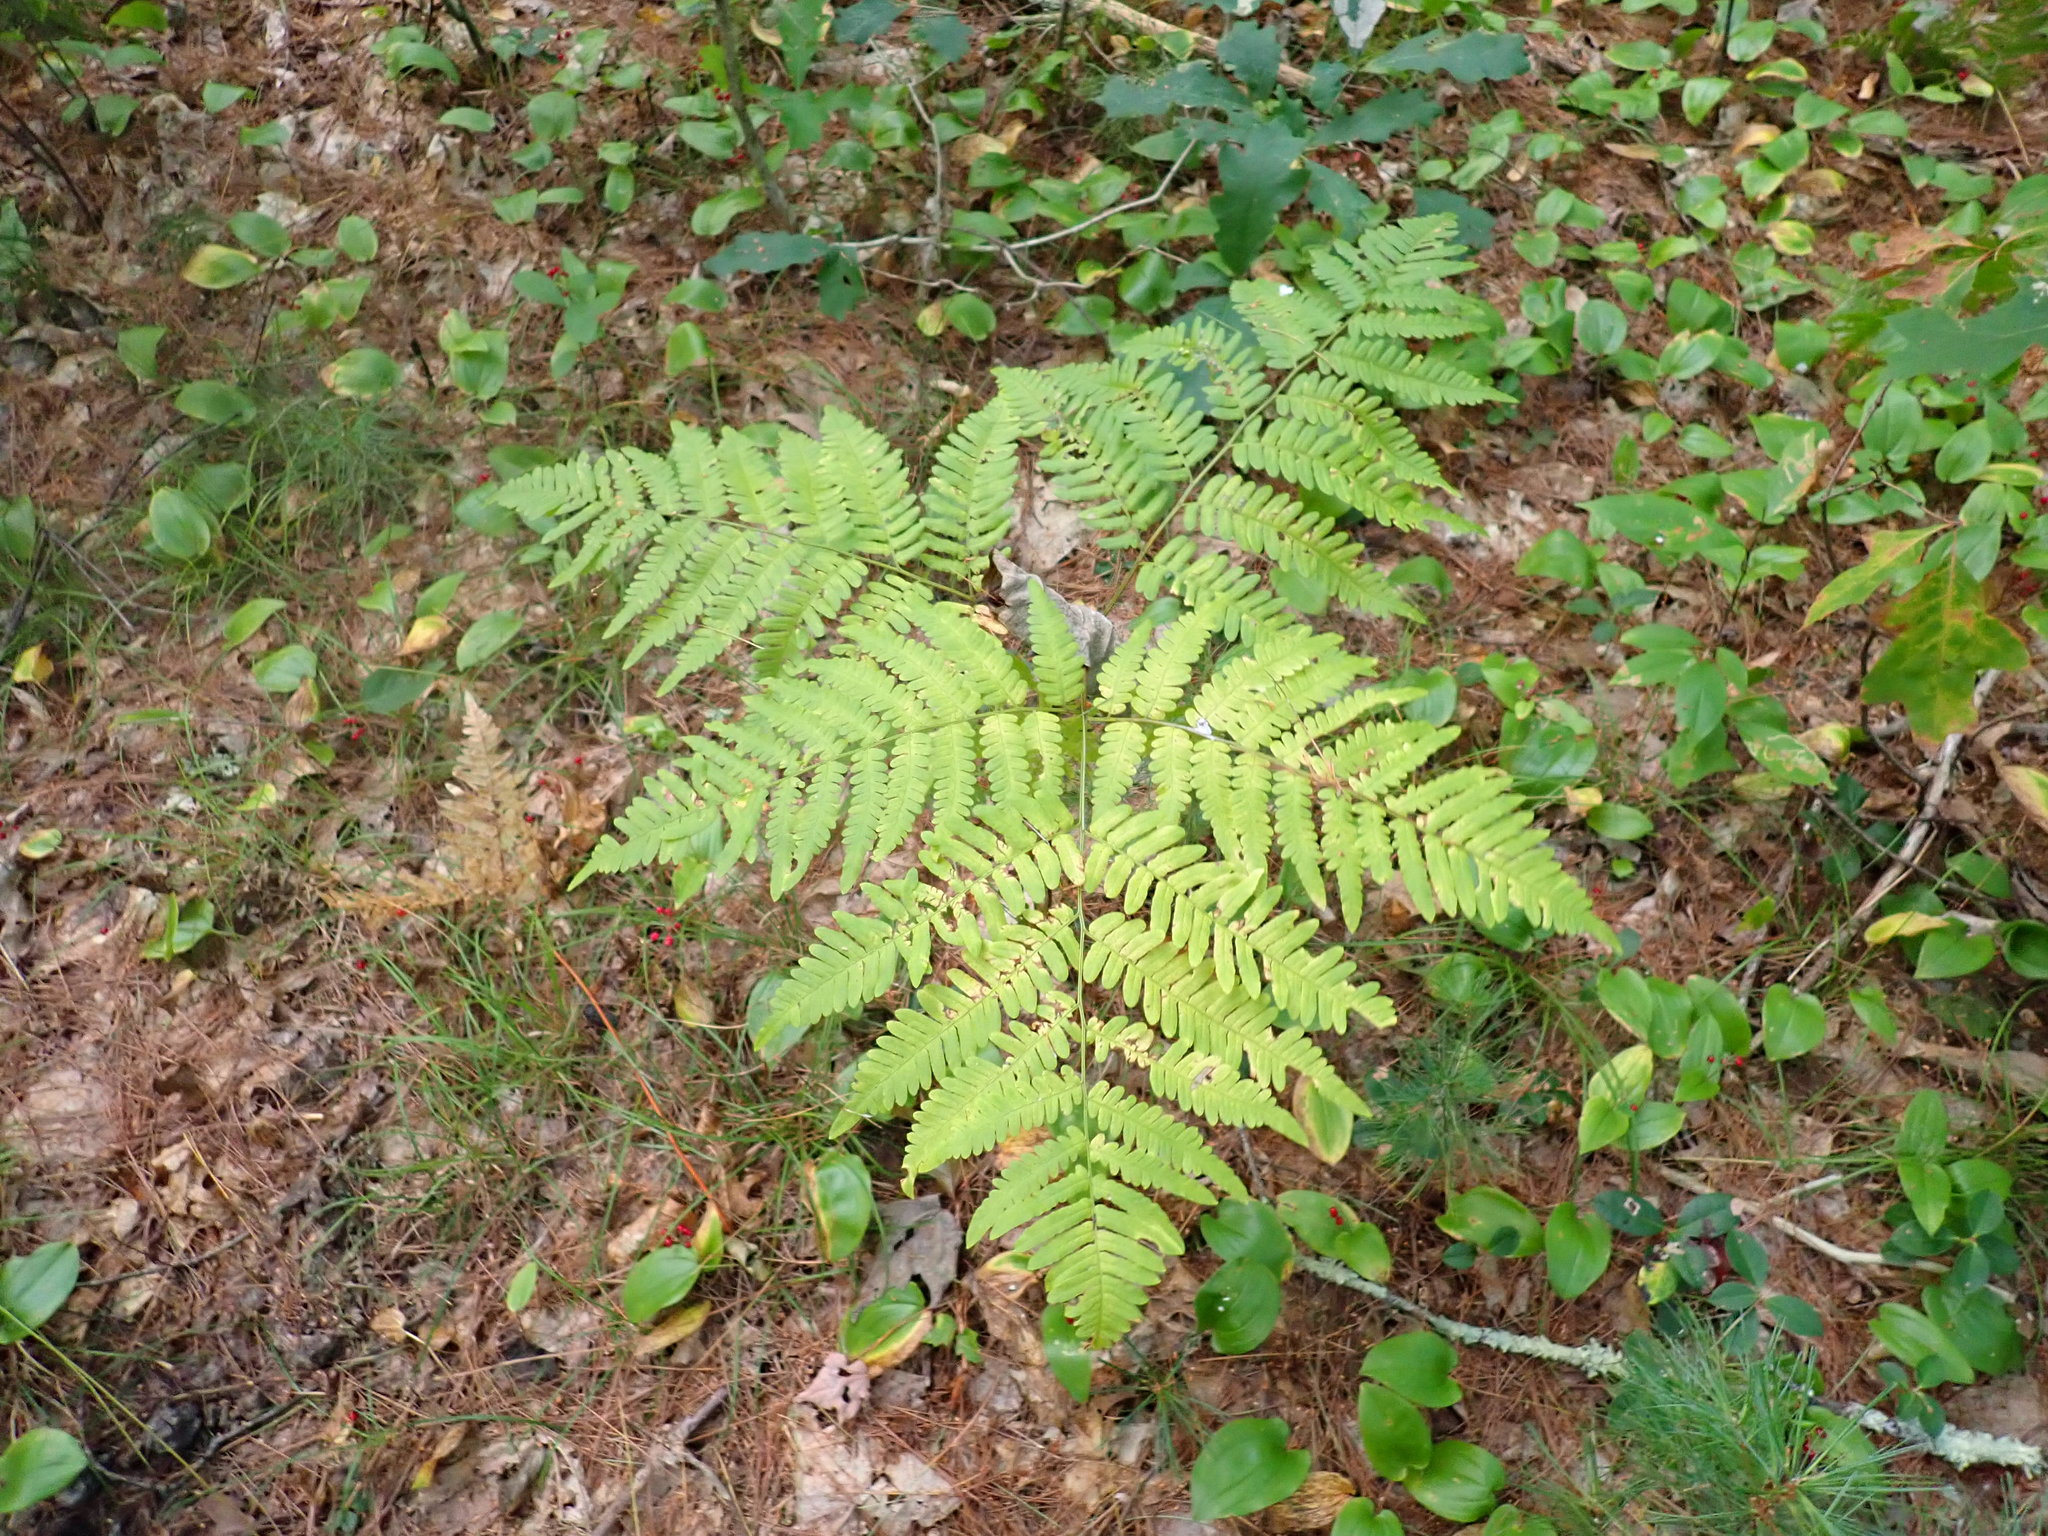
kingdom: Plantae
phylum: Tracheophyta
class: Polypodiopsida
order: Polypodiales
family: Dennstaedtiaceae
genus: Pteridium
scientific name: Pteridium aquilinum
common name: Bracken
